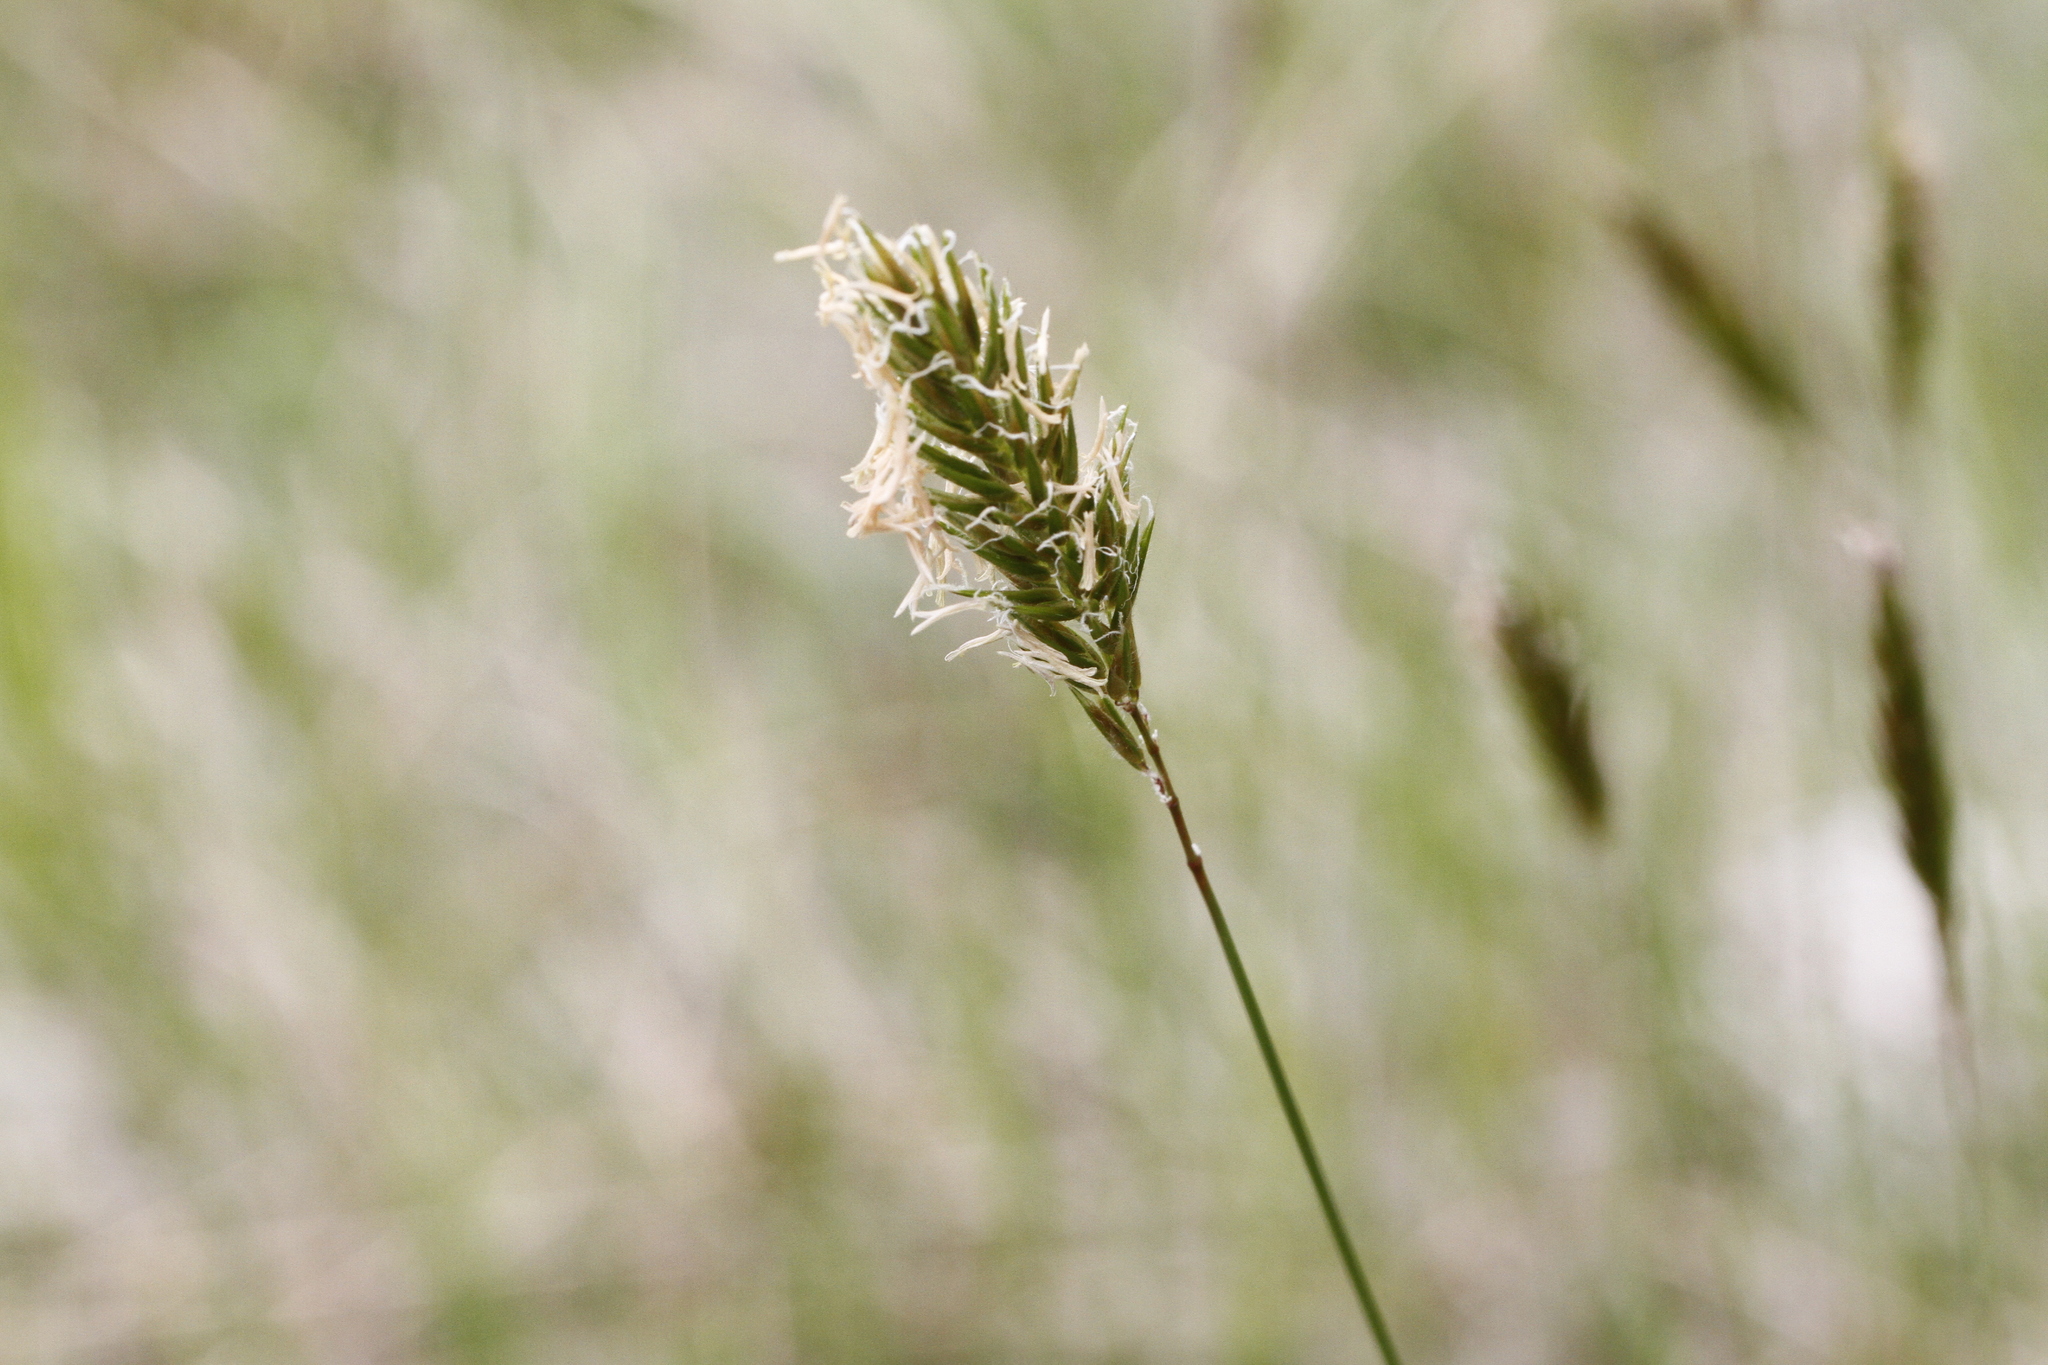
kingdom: Plantae
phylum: Tracheophyta
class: Liliopsida
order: Poales
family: Poaceae
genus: Anthoxanthum
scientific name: Anthoxanthum odoratum
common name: Sweet vernalgrass
